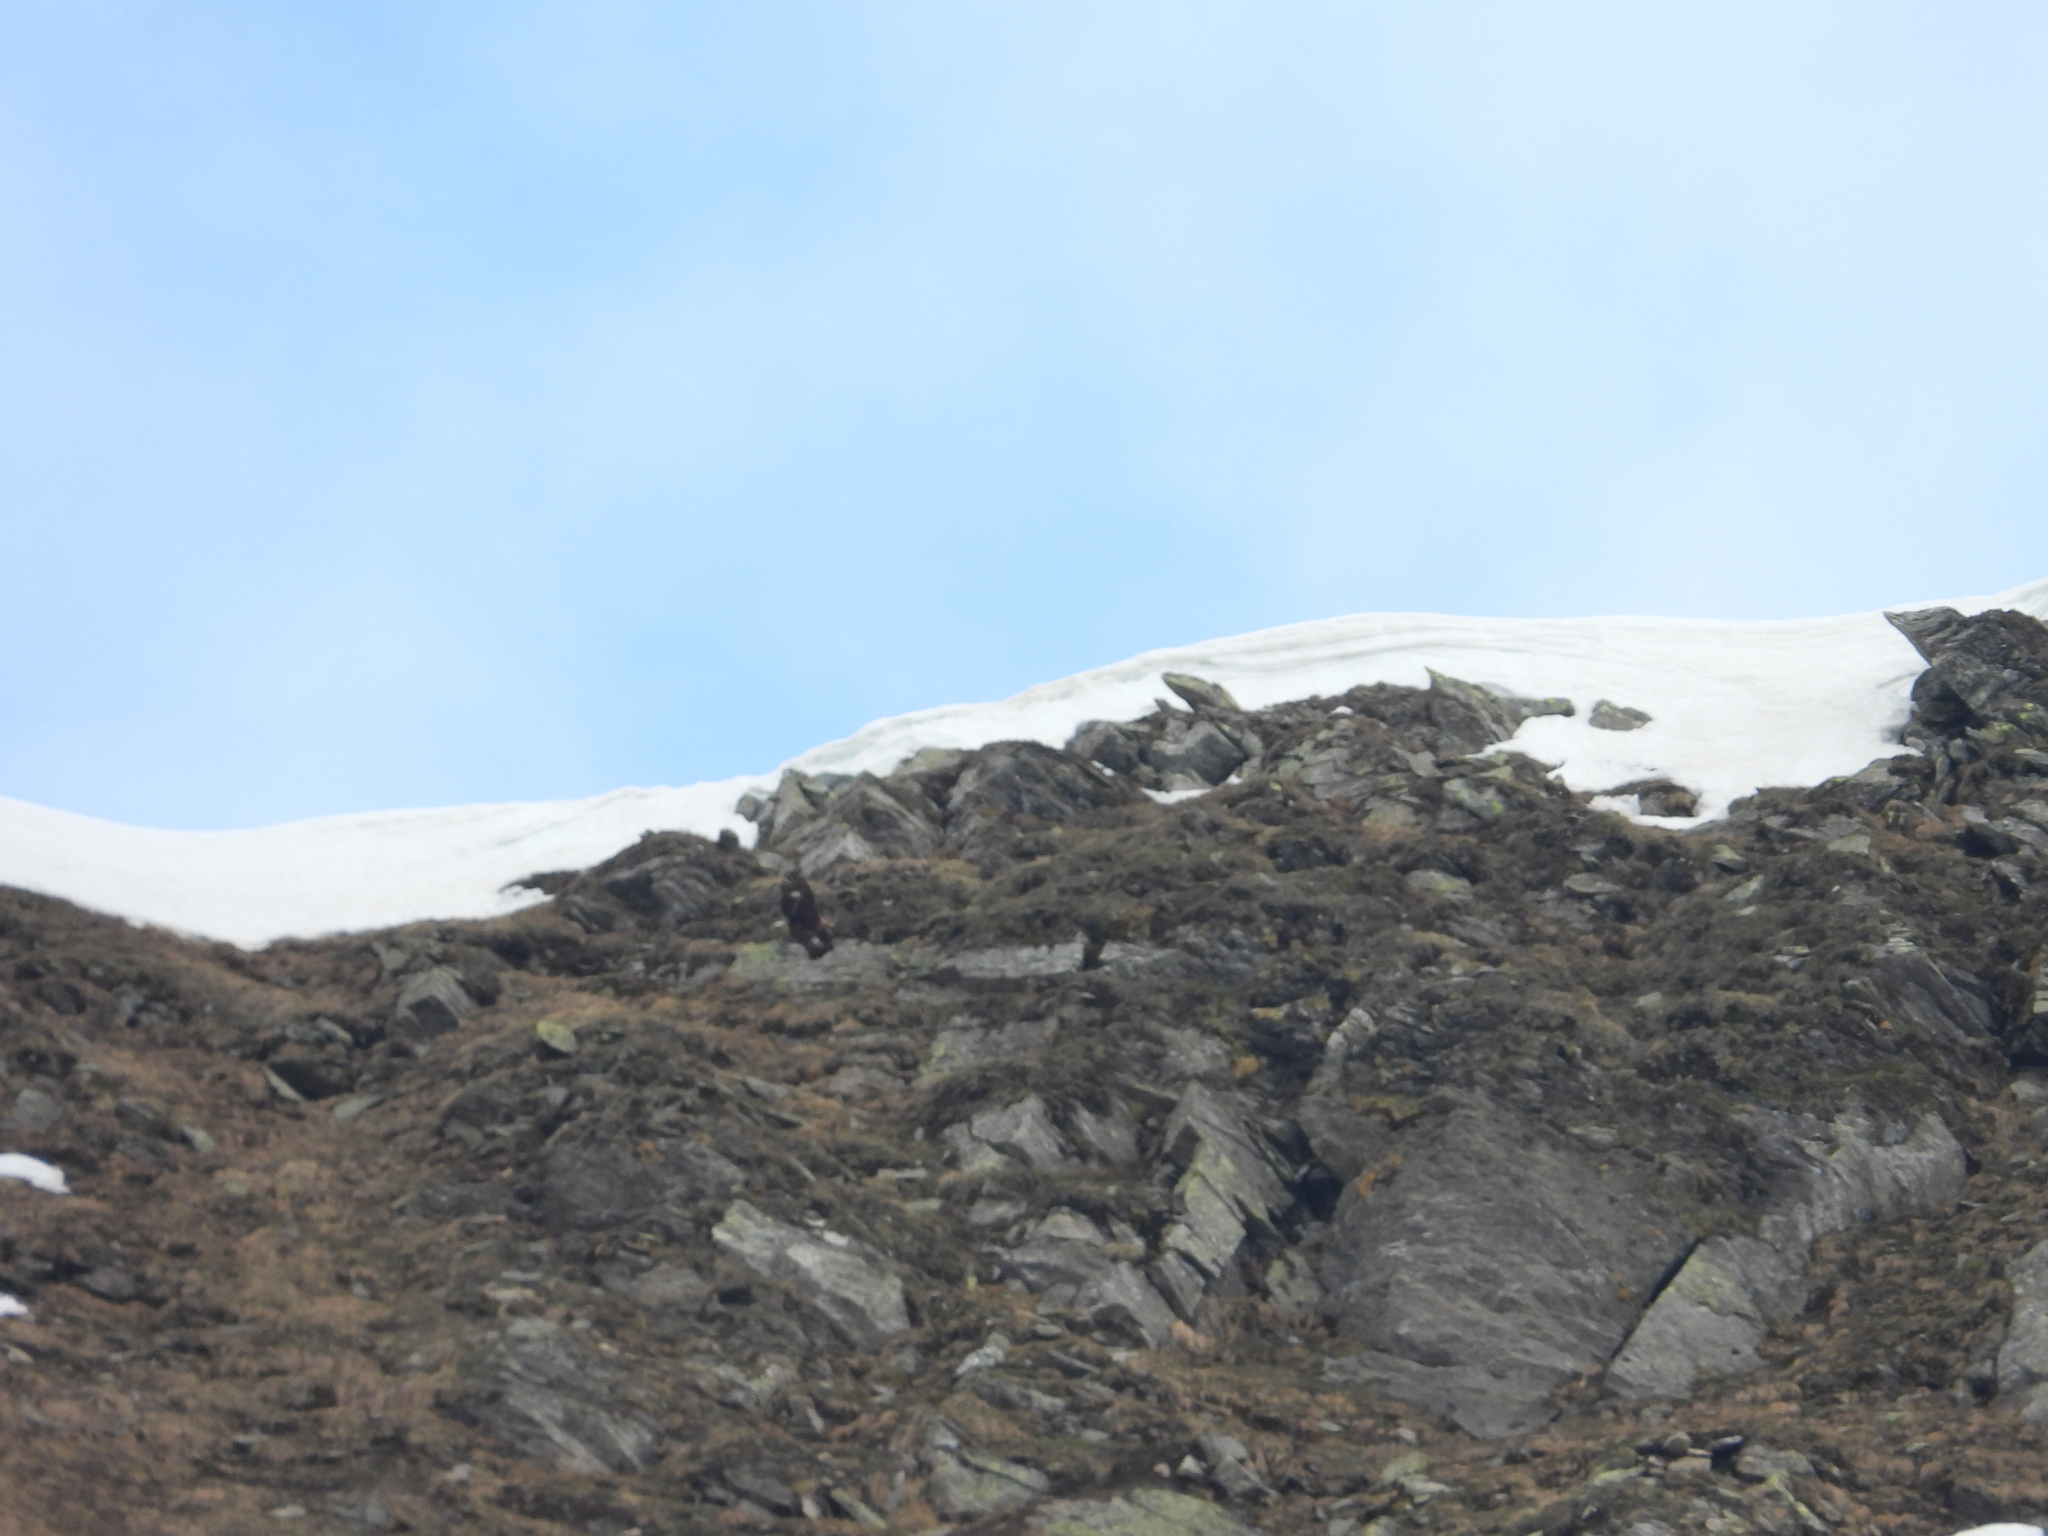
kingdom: Animalia
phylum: Chordata
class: Aves
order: Accipitriformes
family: Accipitridae
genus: Aquila
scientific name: Aquila chrysaetos
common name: Golden eagle
